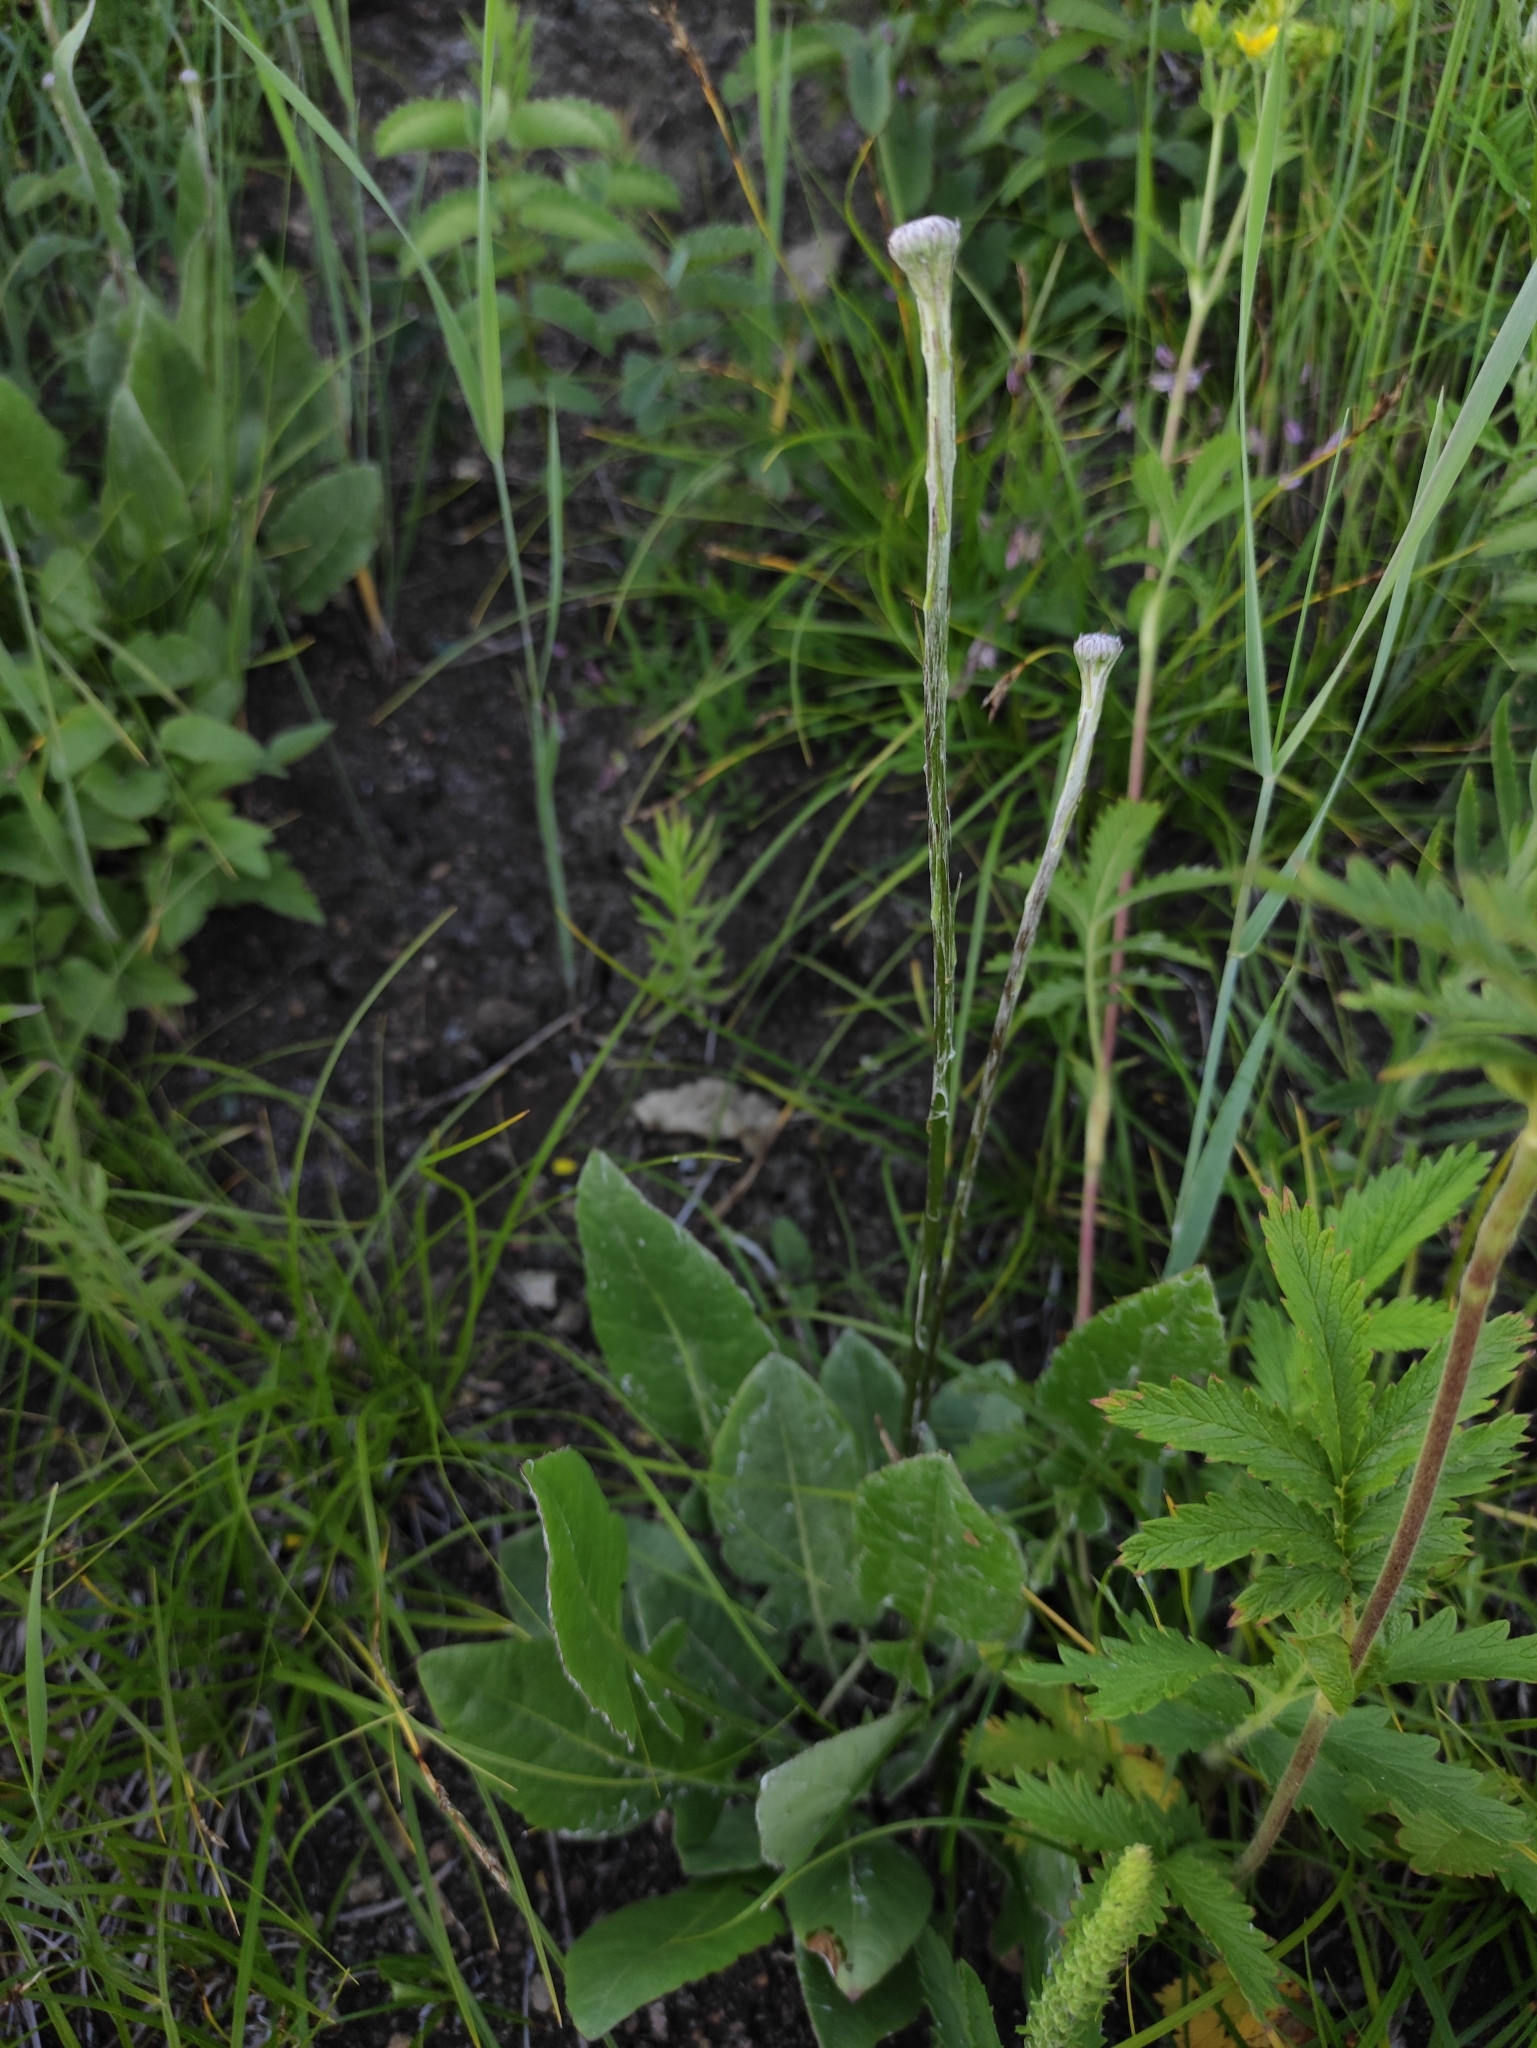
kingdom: Plantae
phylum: Tracheophyta
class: Magnoliopsida
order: Asterales
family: Asteraceae
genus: Leibnitzia
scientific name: Leibnitzia anandria
